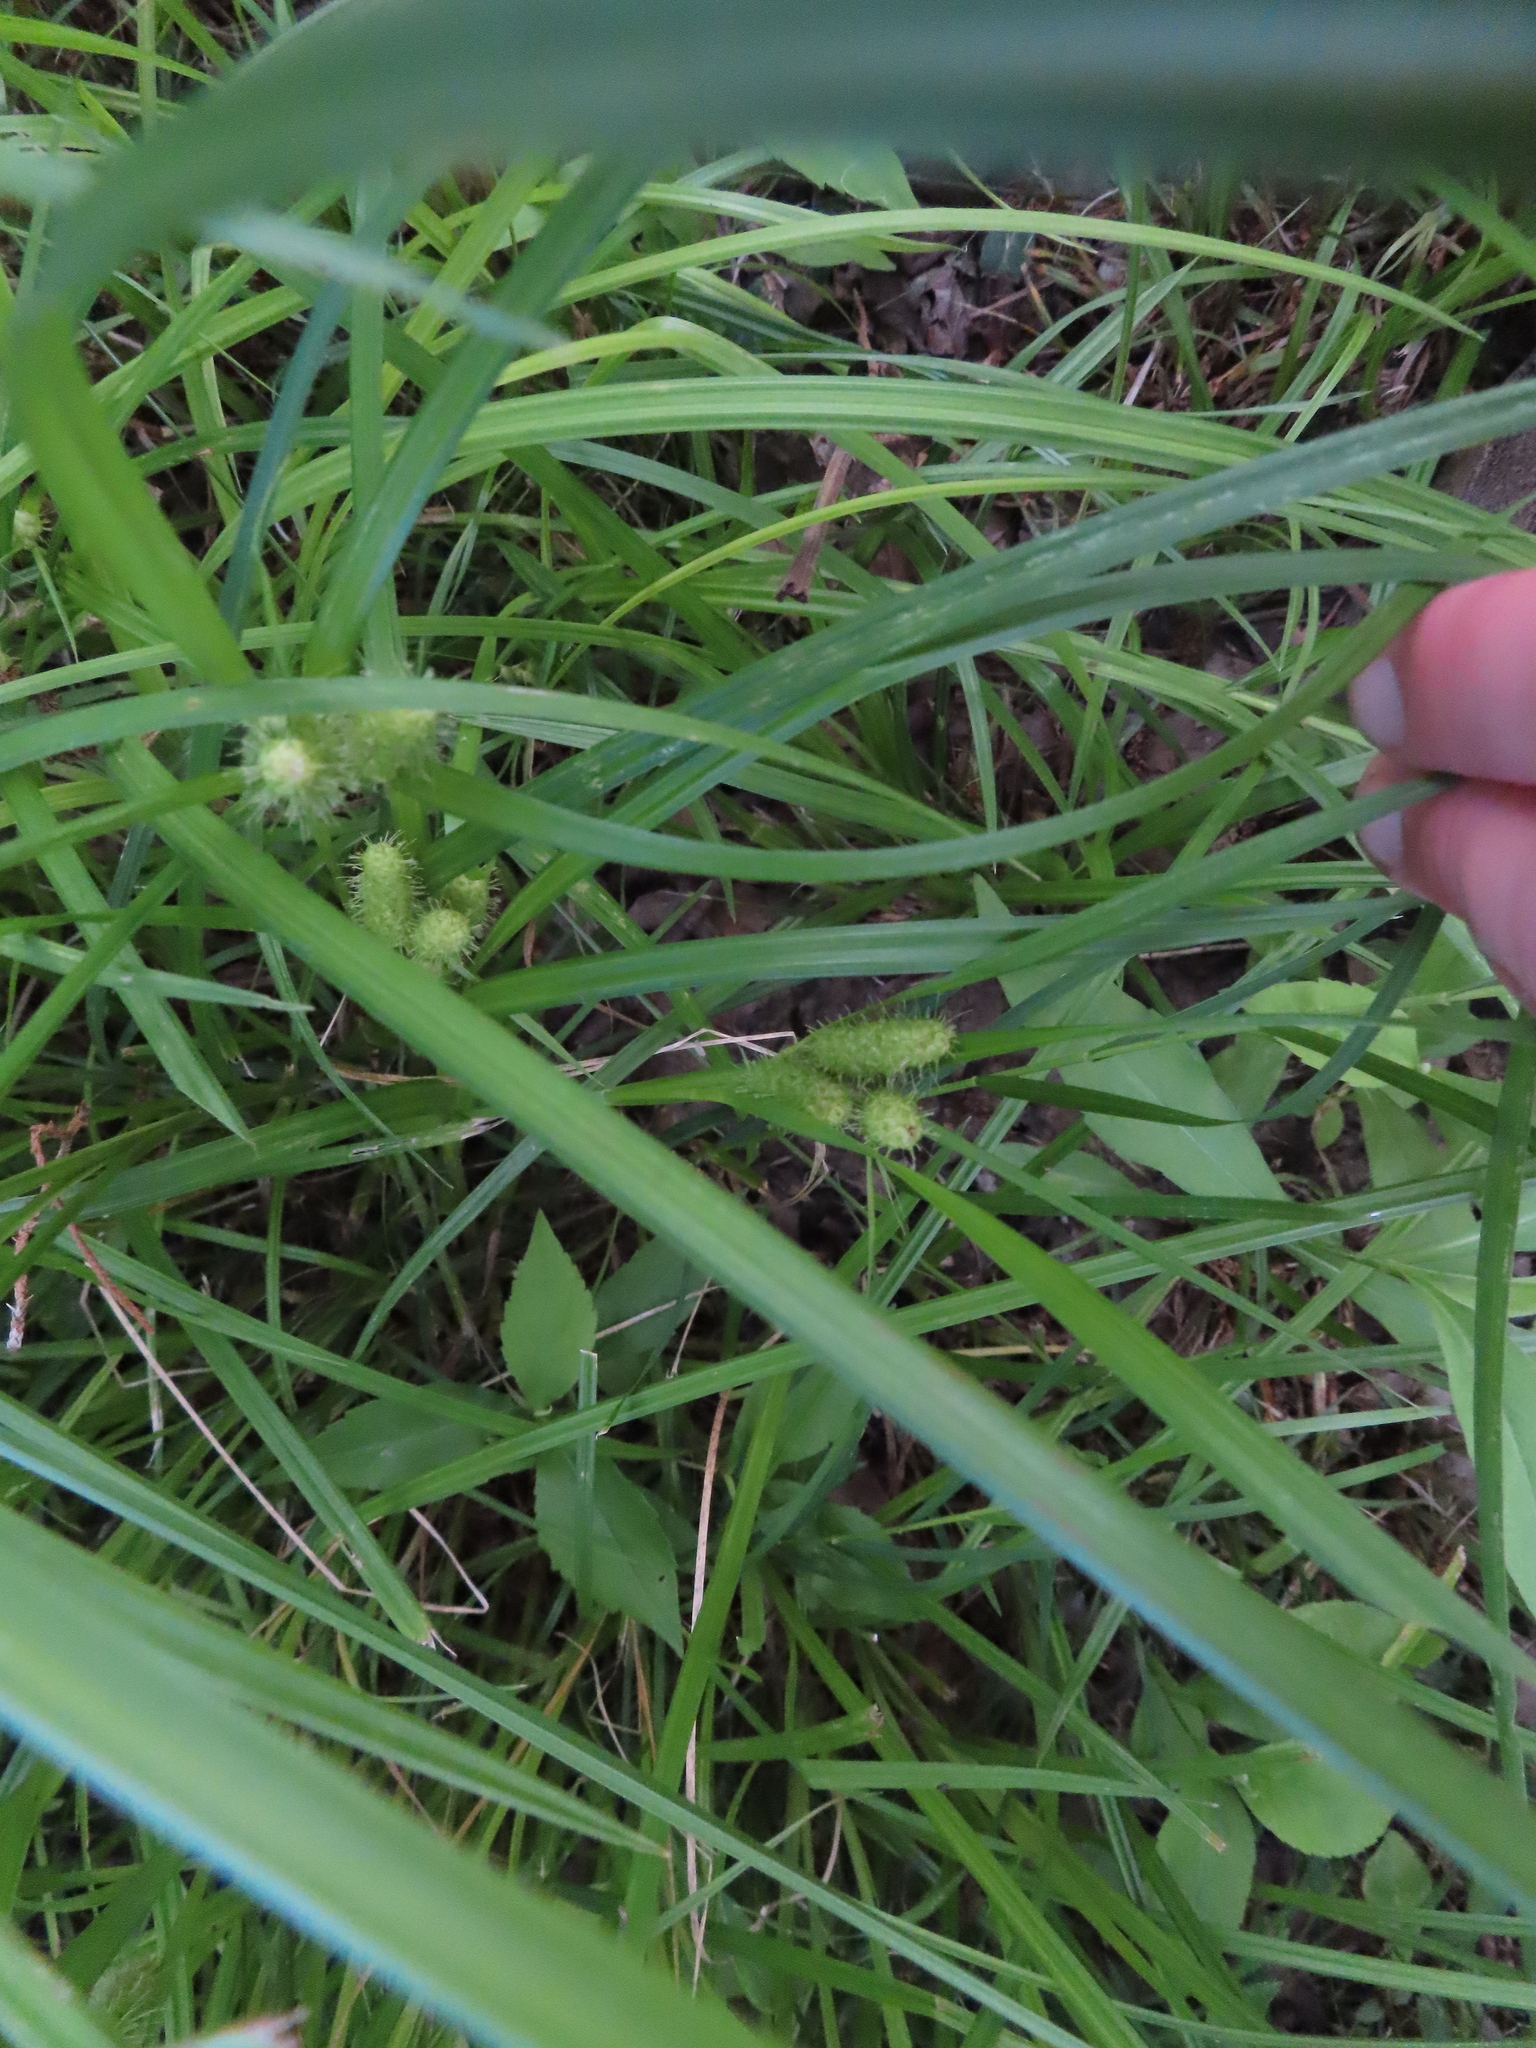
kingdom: Plantae
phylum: Tracheophyta
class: Liliopsida
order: Poales
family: Cyperaceae
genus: Carex
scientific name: Carex frankii
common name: Frank's sedge
